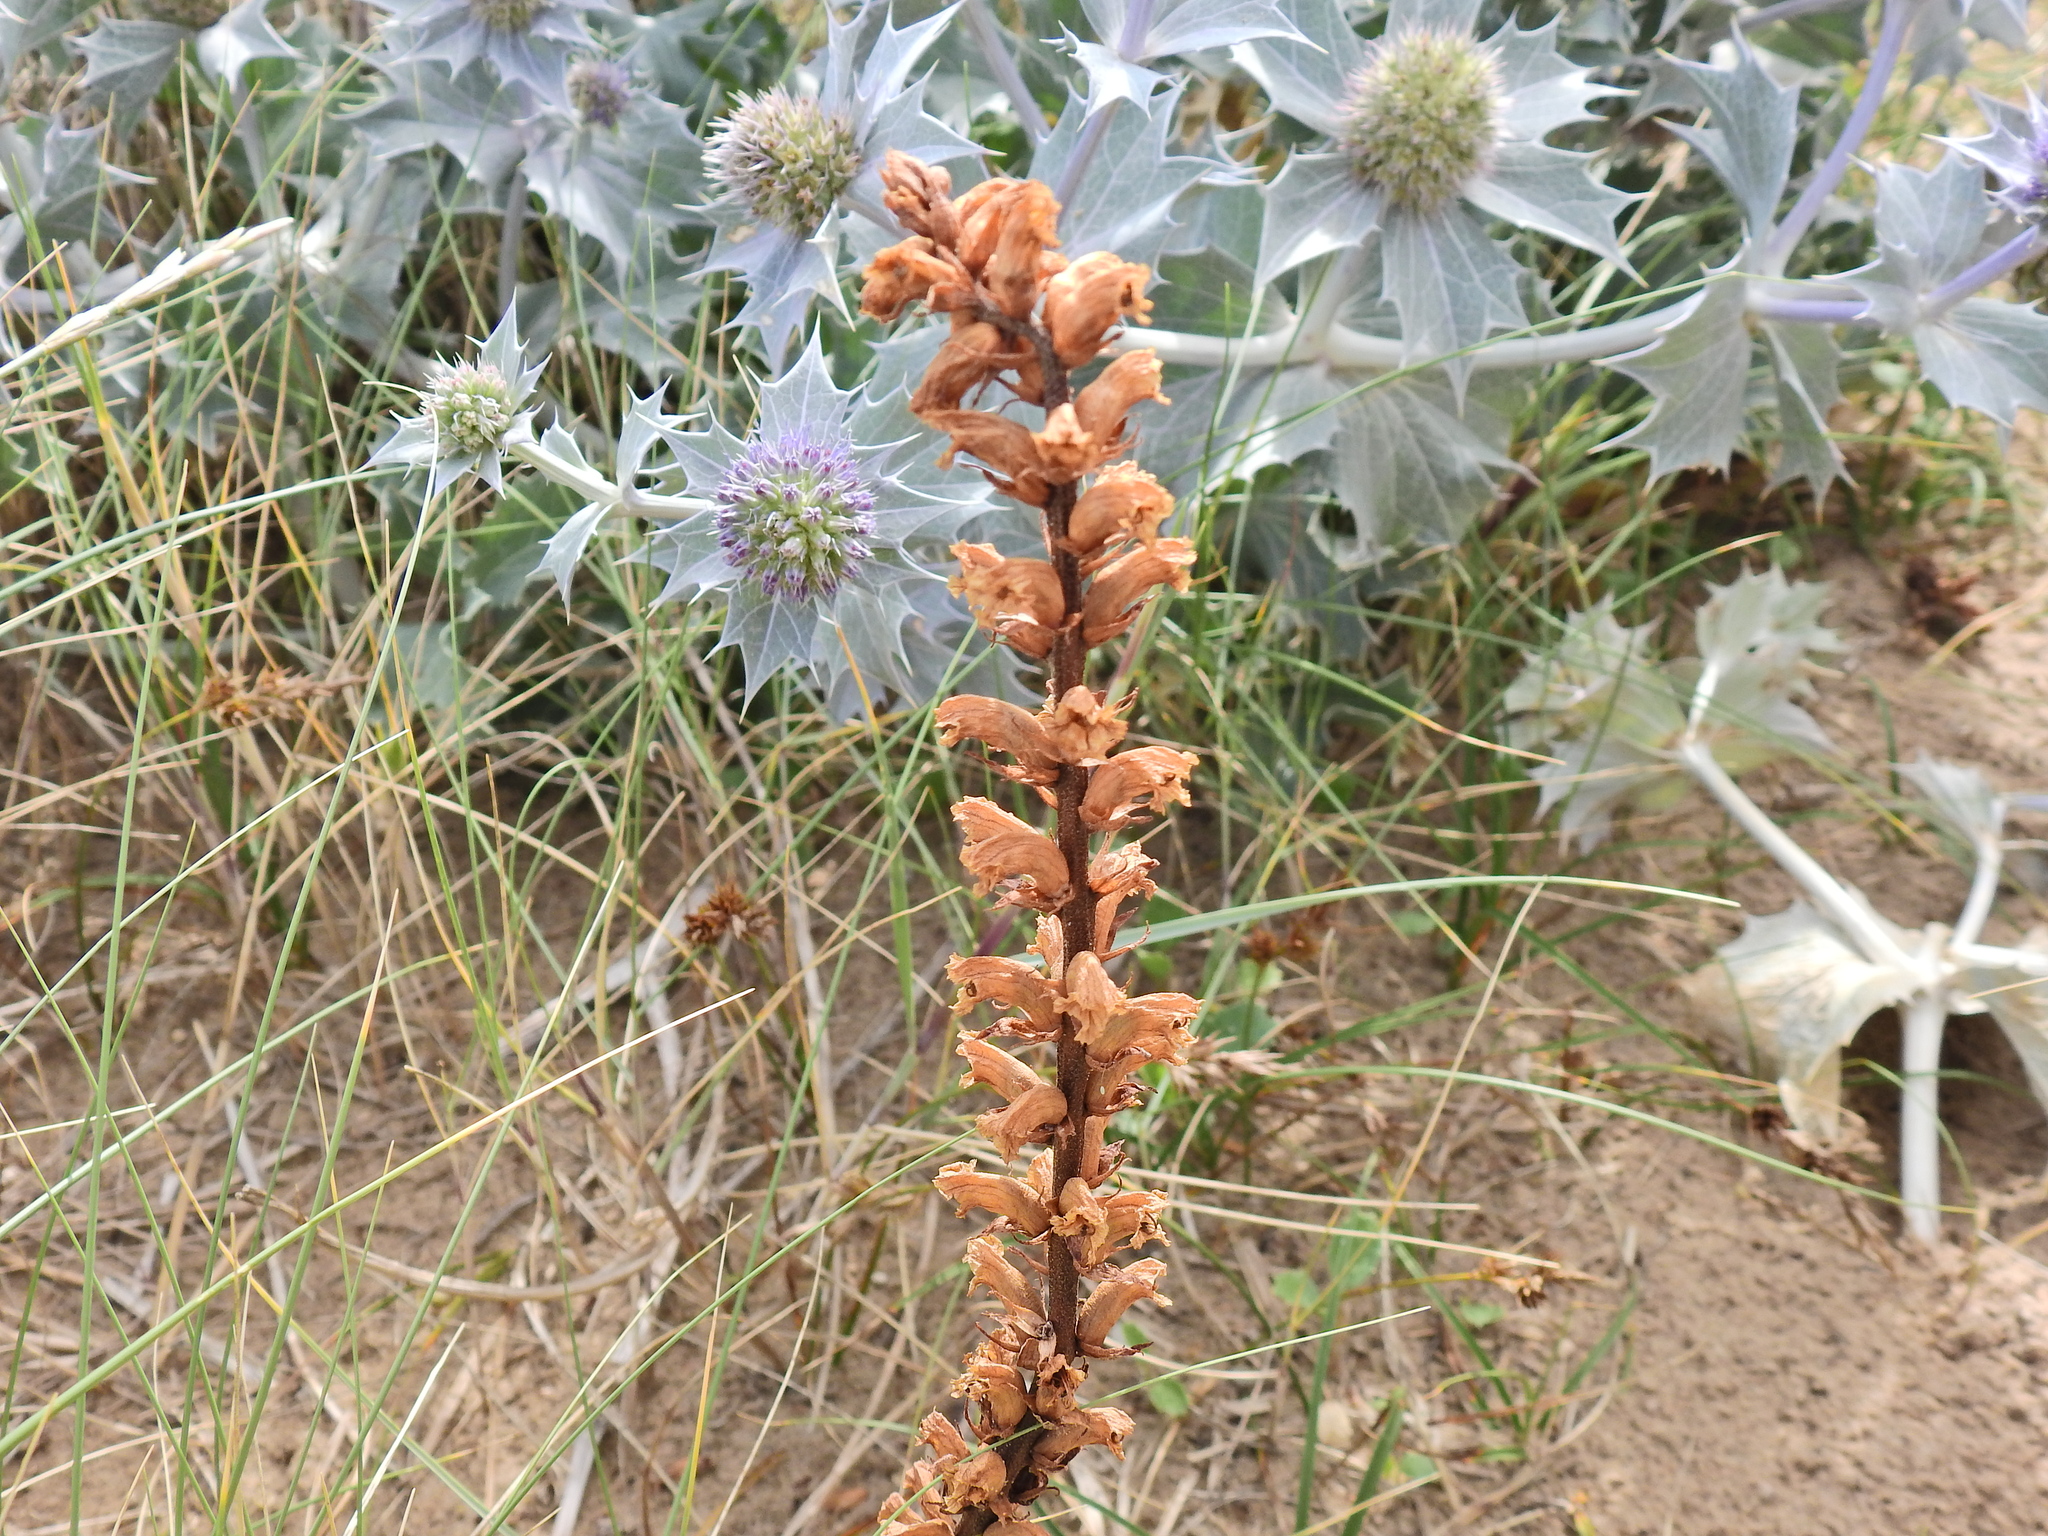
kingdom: Plantae
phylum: Tracheophyta
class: Magnoliopsida
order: Lamiales
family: Orobanchaceae
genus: Orobanche
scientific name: Orobanche minor
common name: Common broomrape
